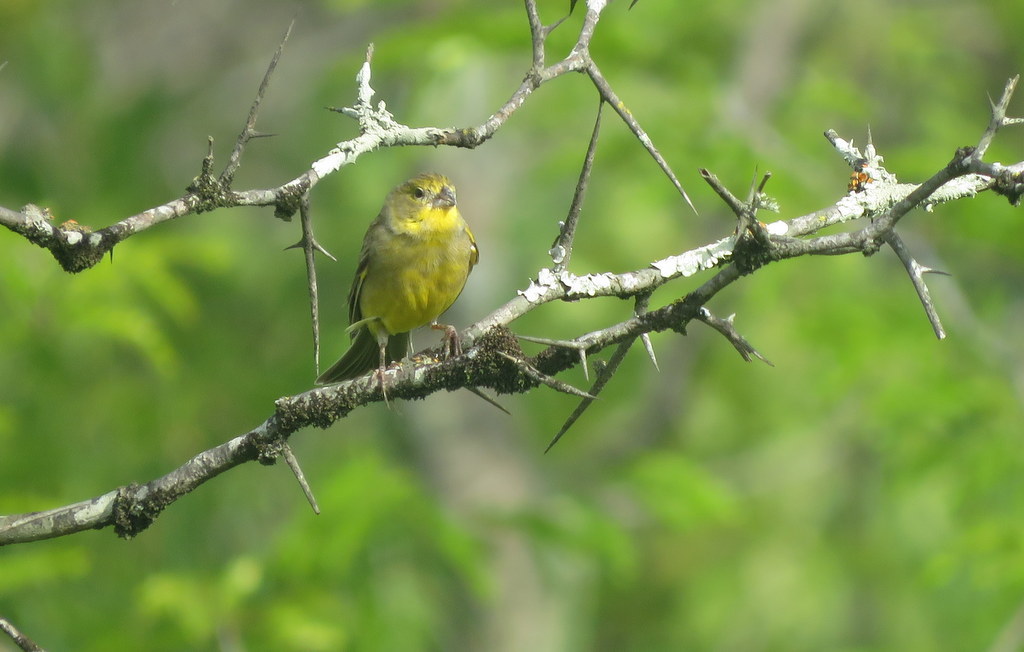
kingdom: Animalia
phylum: Chordata
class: Aves
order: Passeriformes
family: Thraupidae
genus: Sicalis
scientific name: Sicalis luteola
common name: Grassland yellow-finch
